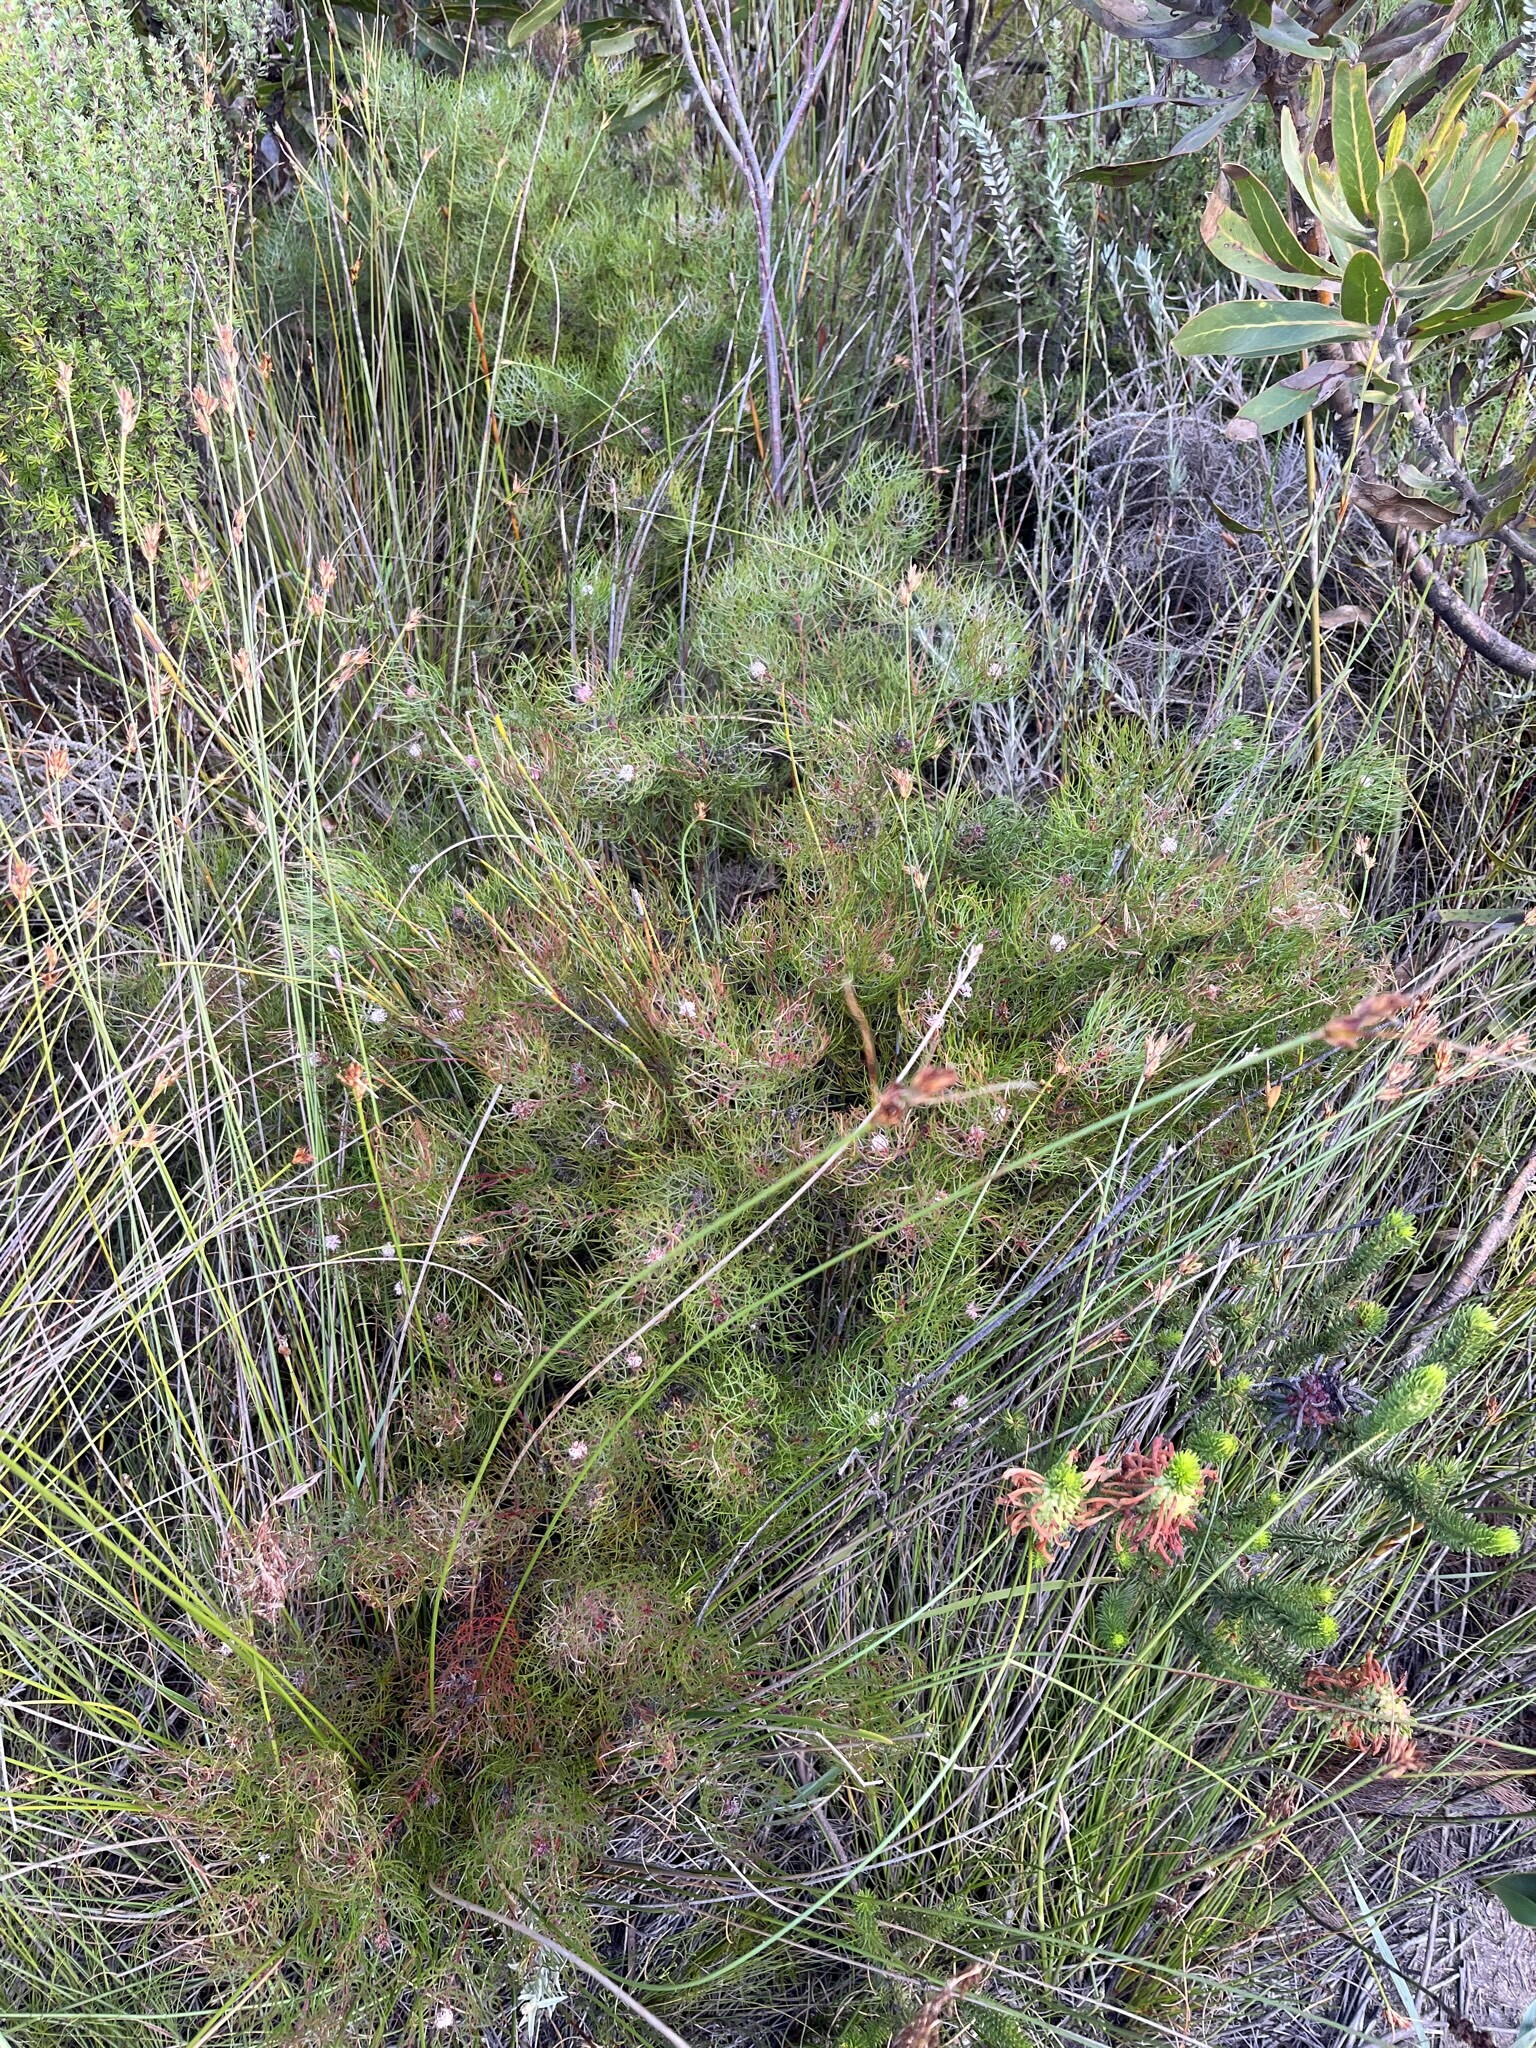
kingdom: Plantae
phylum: Tracheophyta
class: Magnoliopsida
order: Proteales
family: Proteaceae
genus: Serruria
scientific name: Serruria fasciflora
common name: Common pin spiderhead
